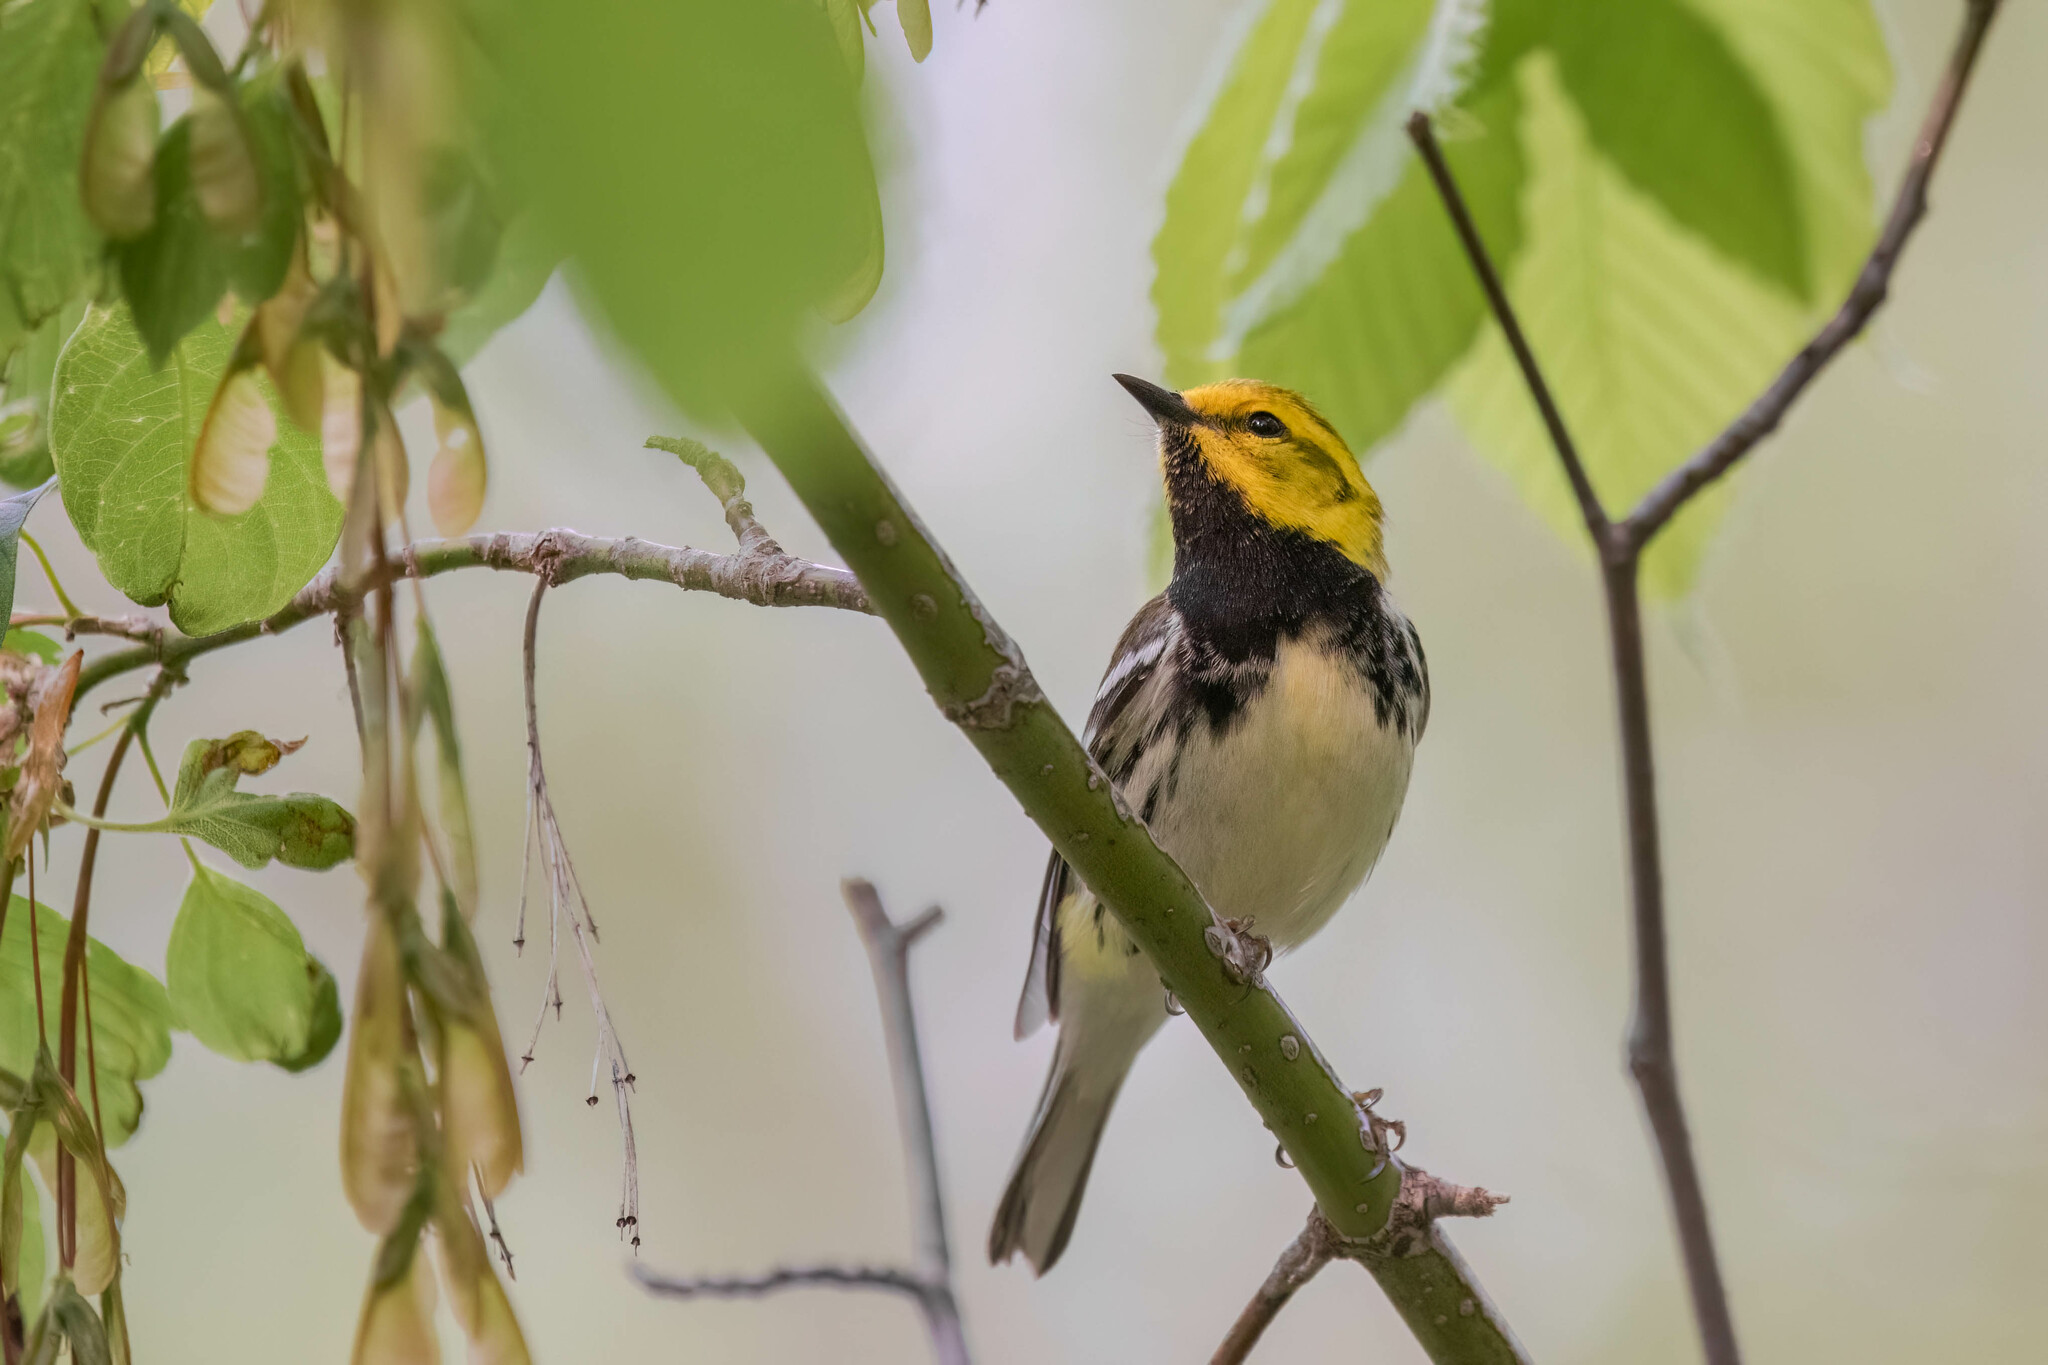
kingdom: Animalia
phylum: Chordata
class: Aves
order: Passeriformes
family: Parulidae
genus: Setophaga
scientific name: Setophaga virens
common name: Black-throated green warbler
